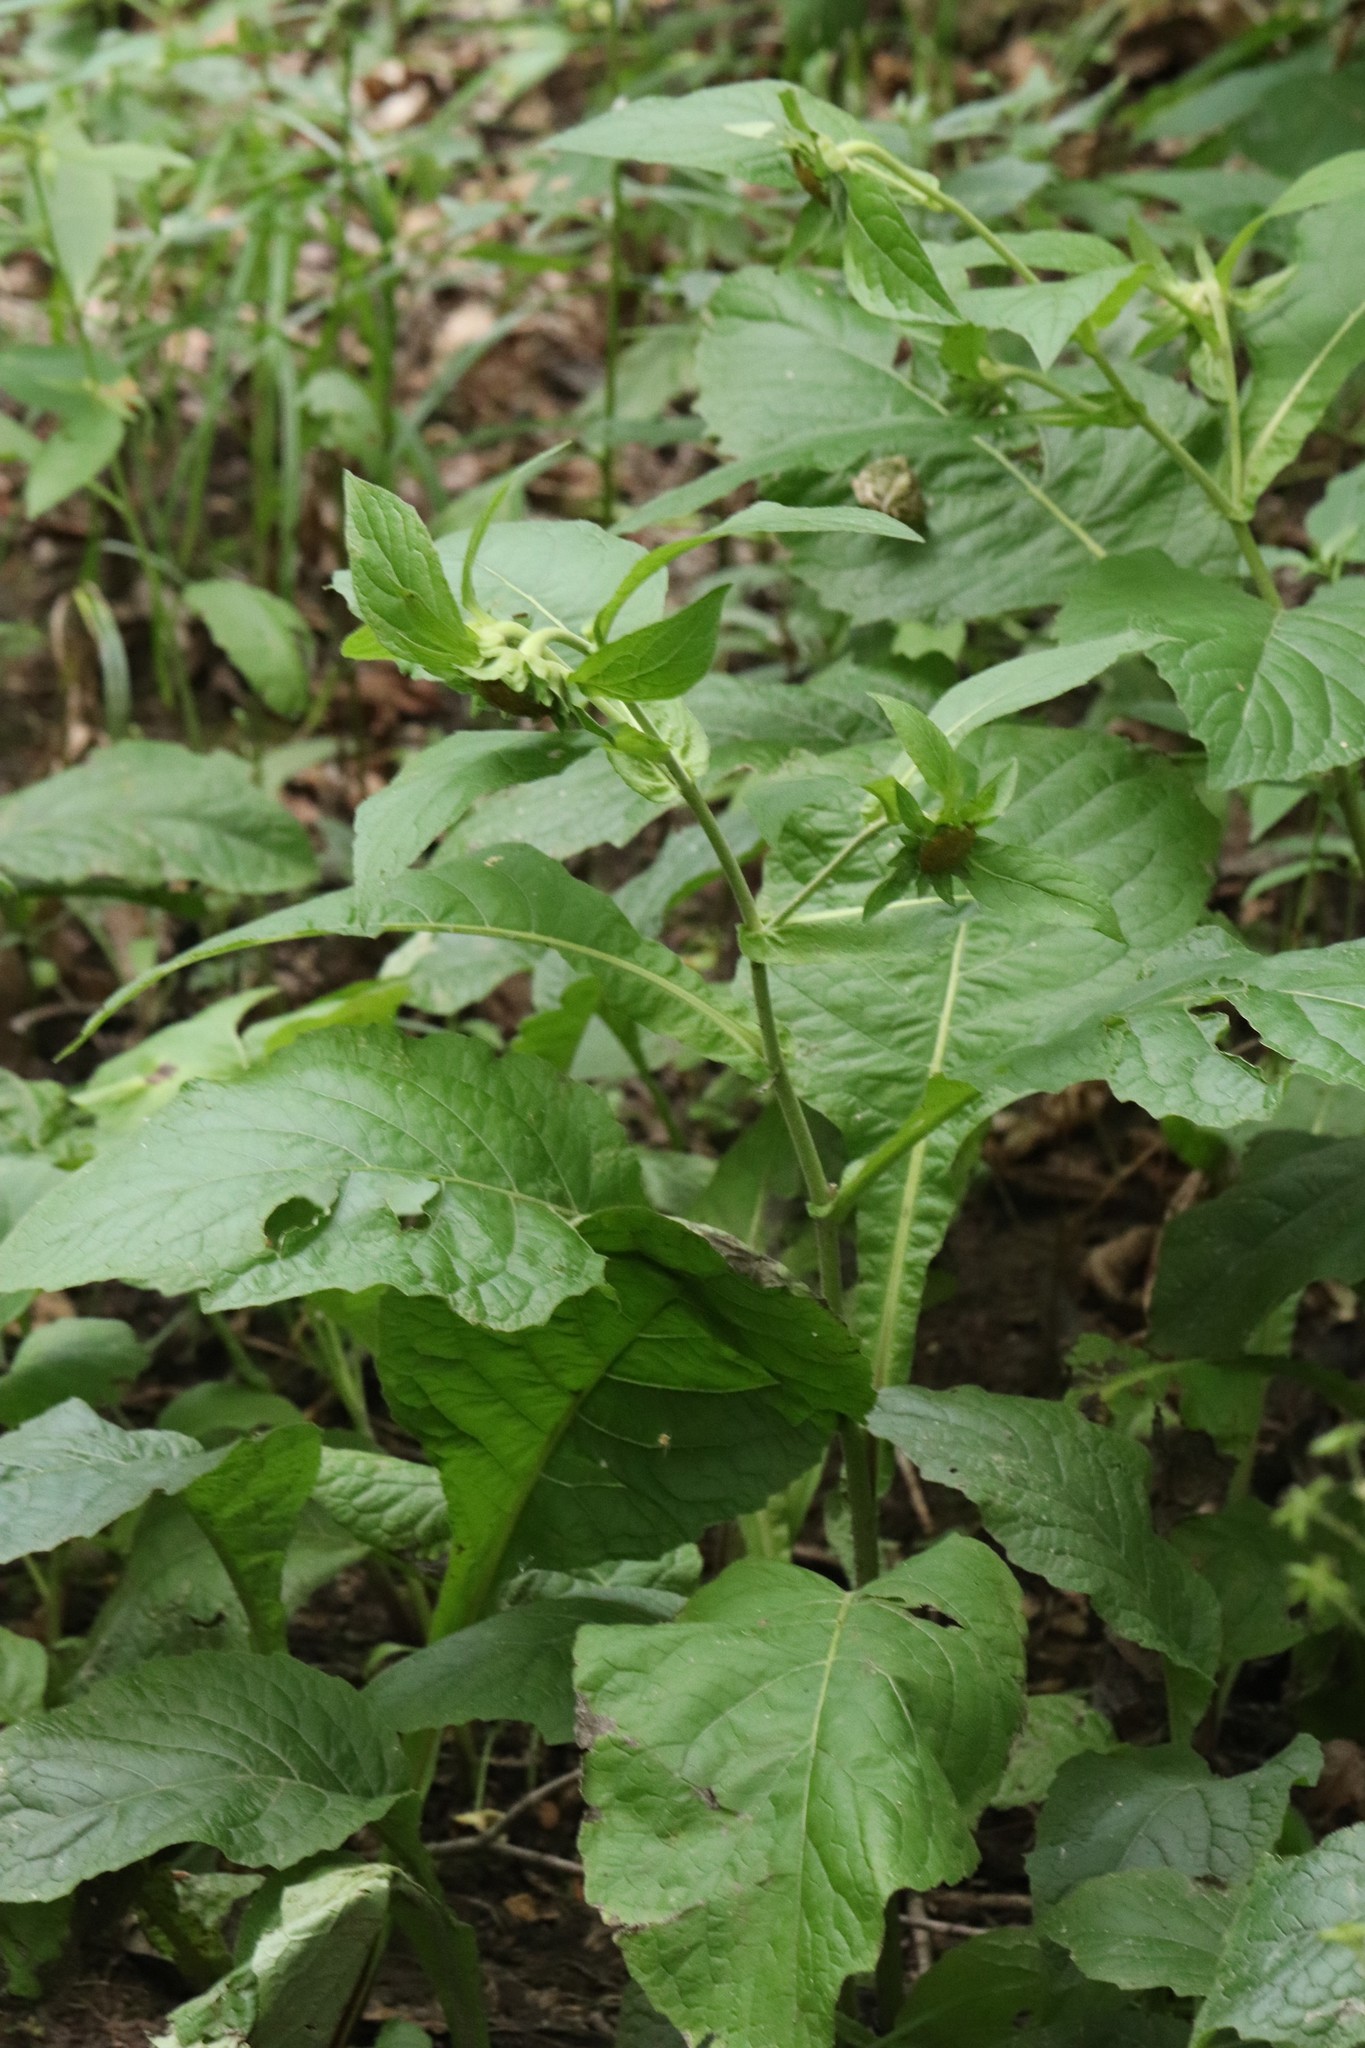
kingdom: Plantae
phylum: Tracheophyta
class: Magnoliopsida
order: Asterales
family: Asteraceae
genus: Carpesium
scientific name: Carpesium macrocephalum
